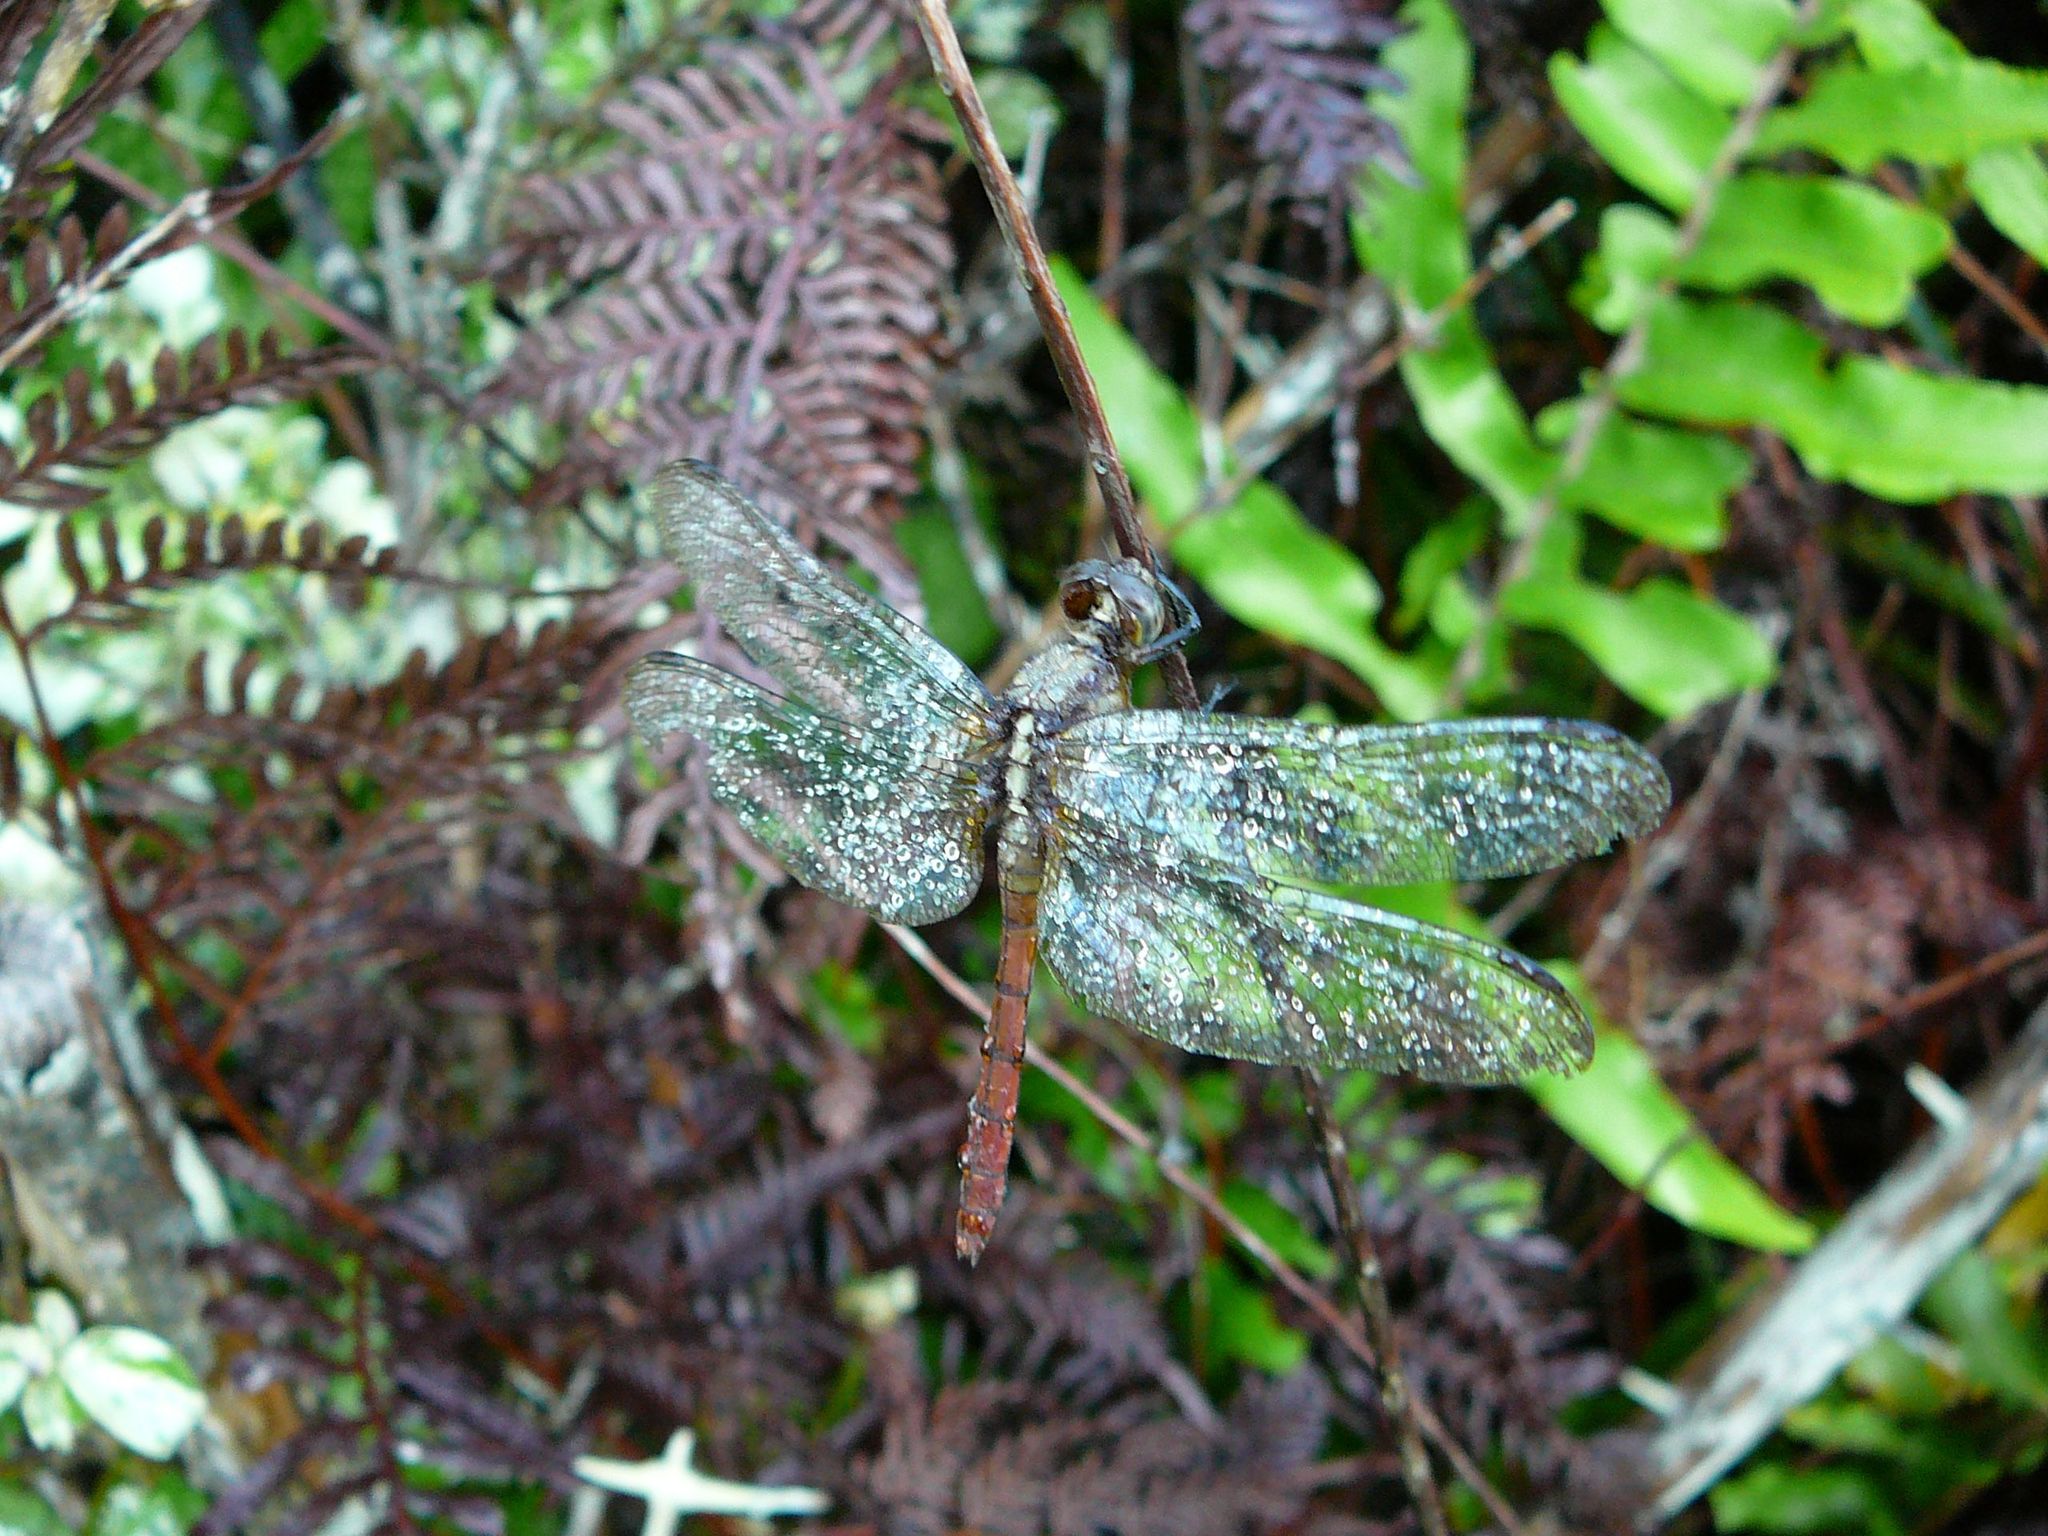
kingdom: Animalia
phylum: Arthropoda
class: Insecta
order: Odonata
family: Libellulidae
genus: Orthetrum
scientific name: Orthetrum villosovittatum
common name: Firery skimmer
